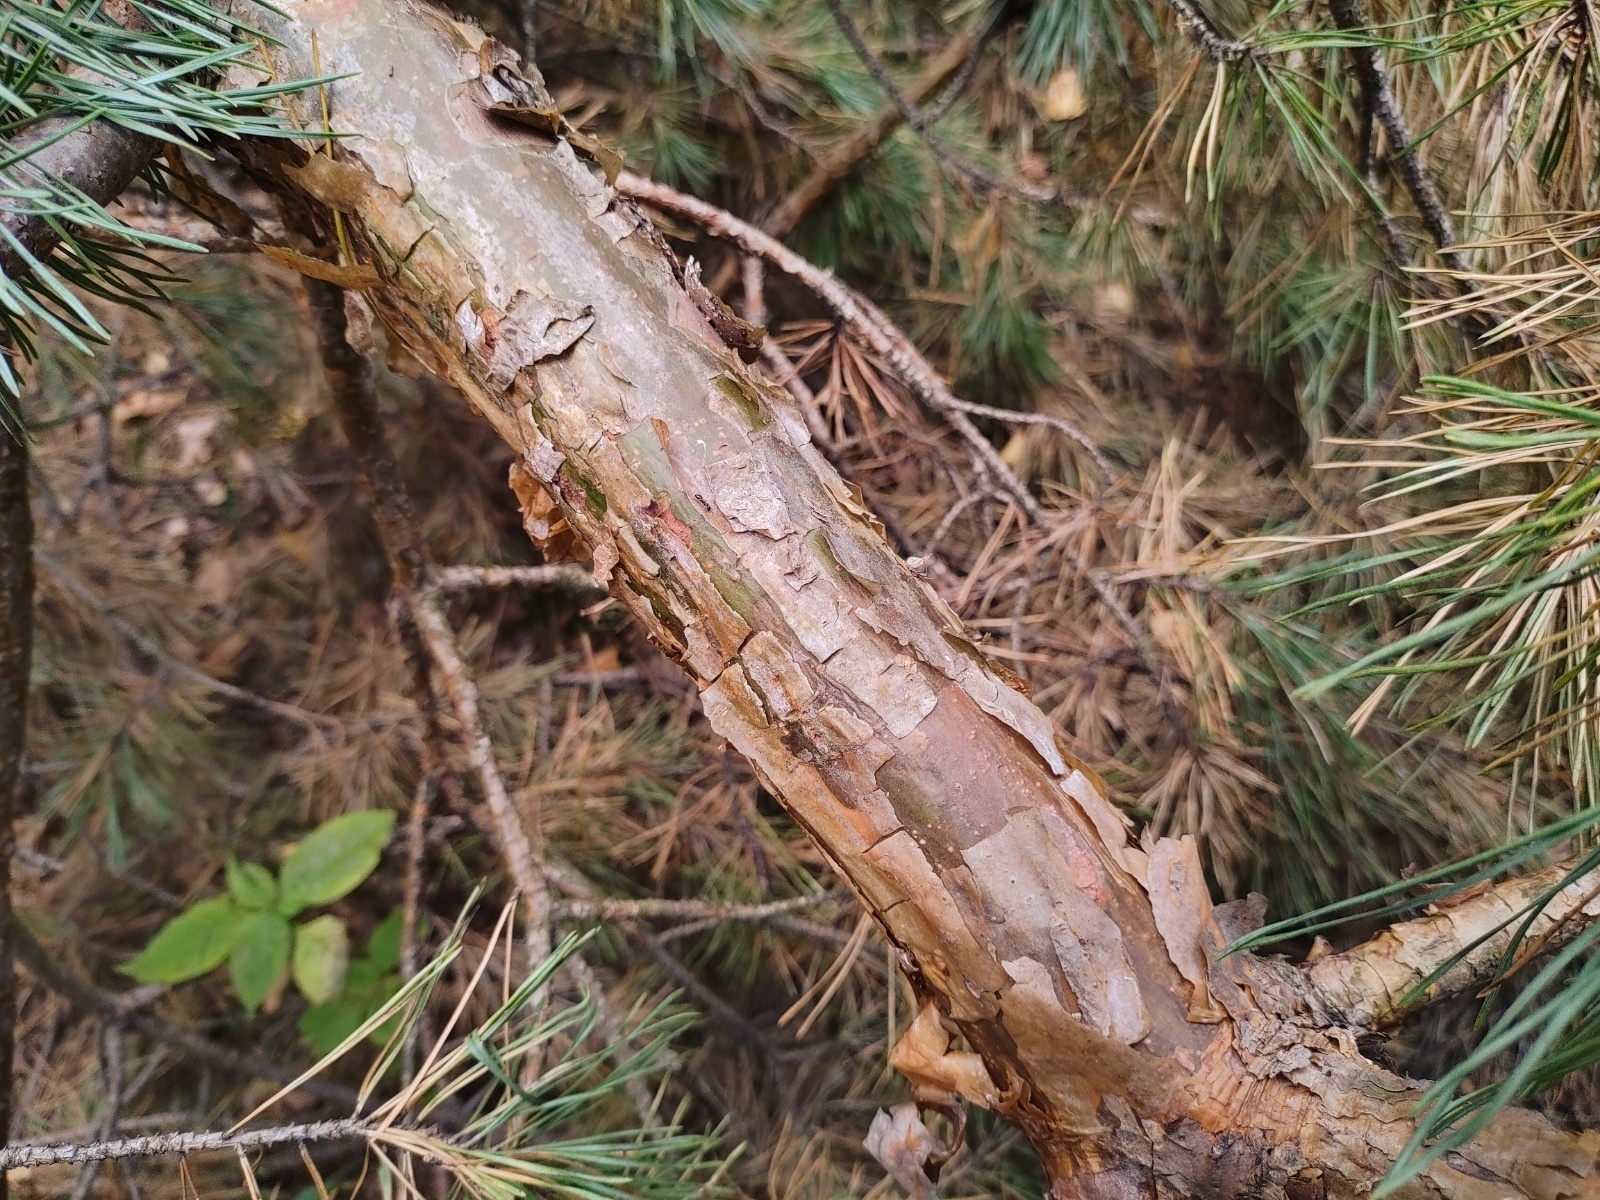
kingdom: Plantae
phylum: Tracheophyta
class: Pinopsida
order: Pinales
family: Pinaceae
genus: Pinus
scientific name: Pinus sylvestris
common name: Scots pine
